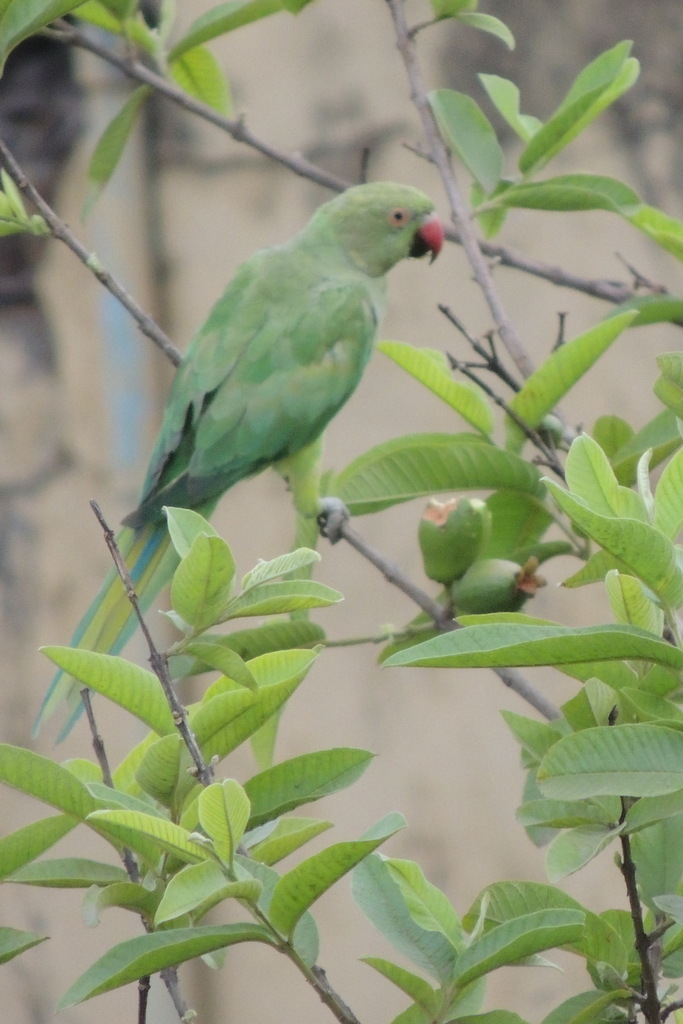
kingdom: Animalia
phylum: Chordata
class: Aves
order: Psittaciformes
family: Psittacidae
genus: Psittacula
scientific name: Psittacula krameri
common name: Rose-ringed parakeet
